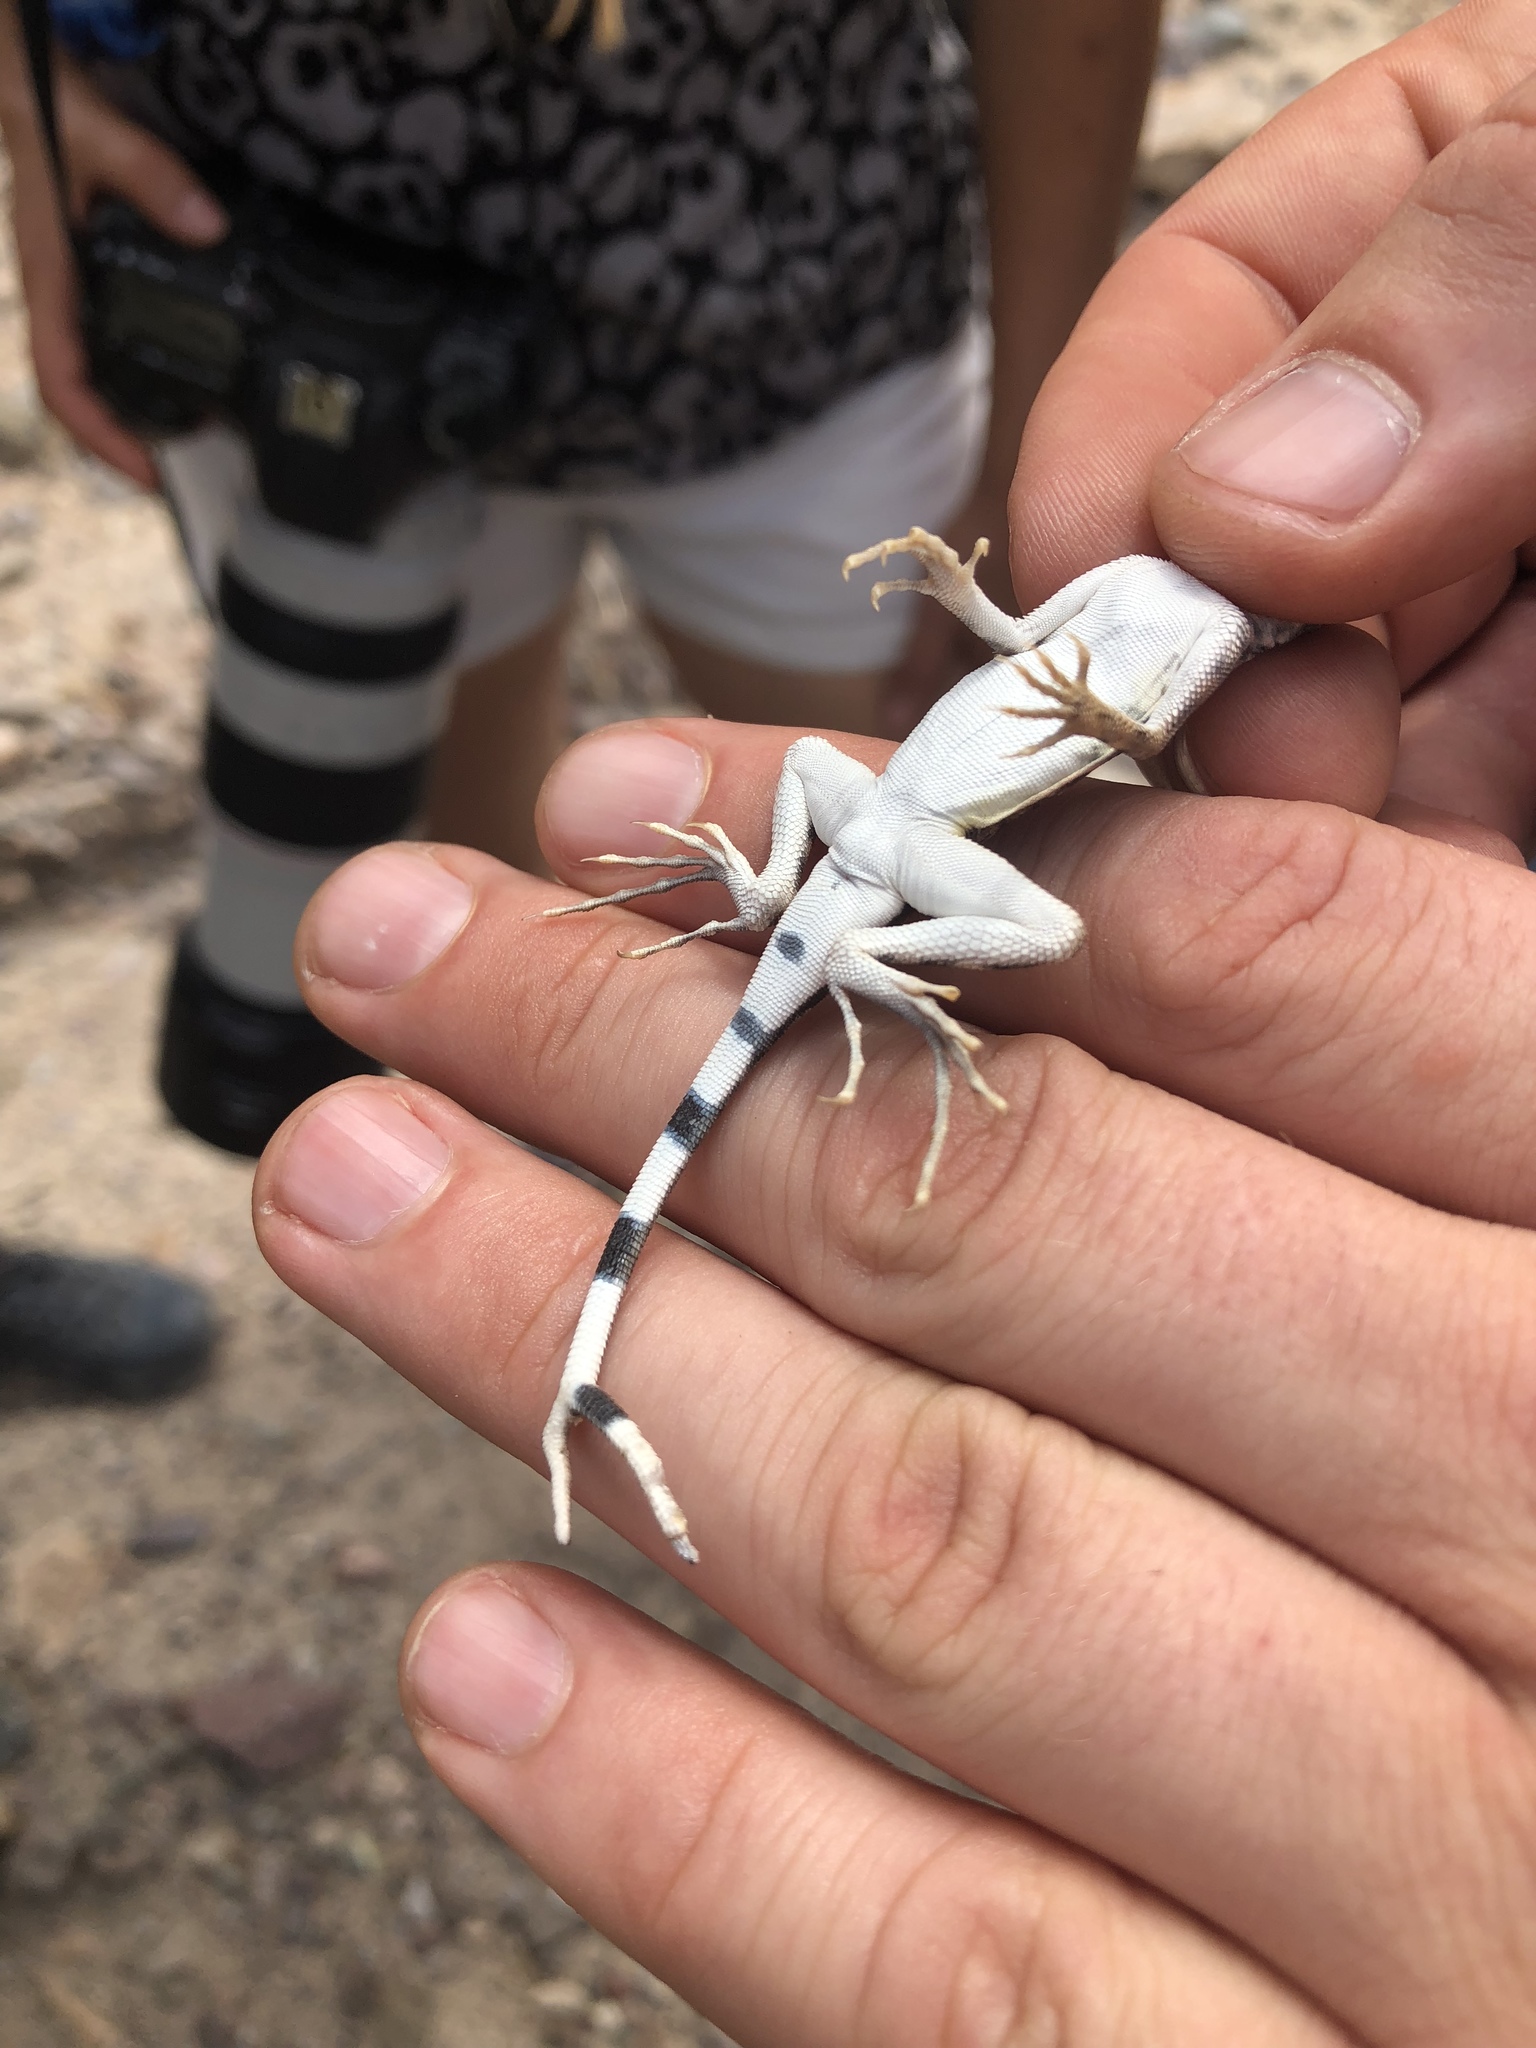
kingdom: Animalia
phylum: Chordata
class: Squamata
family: Phrynosomatidae
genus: Callisaurus
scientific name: Callisaurus draconoides
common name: Zebra-tailed lizard
